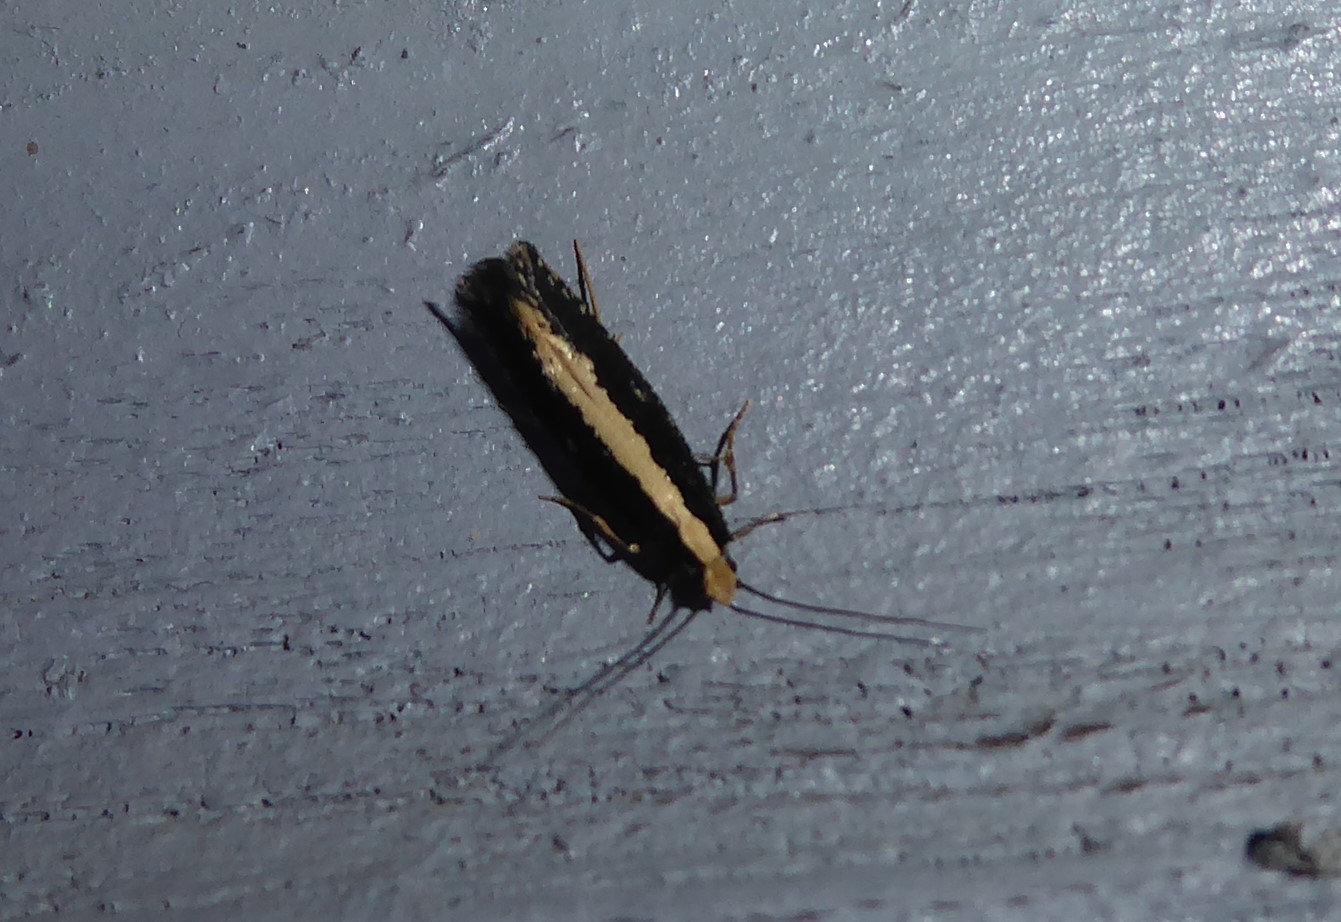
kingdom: Animalia
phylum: Arthropoda
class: Insecta
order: Lepidoptera
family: Tineidae
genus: Monopis
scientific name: Monopis ethelella
